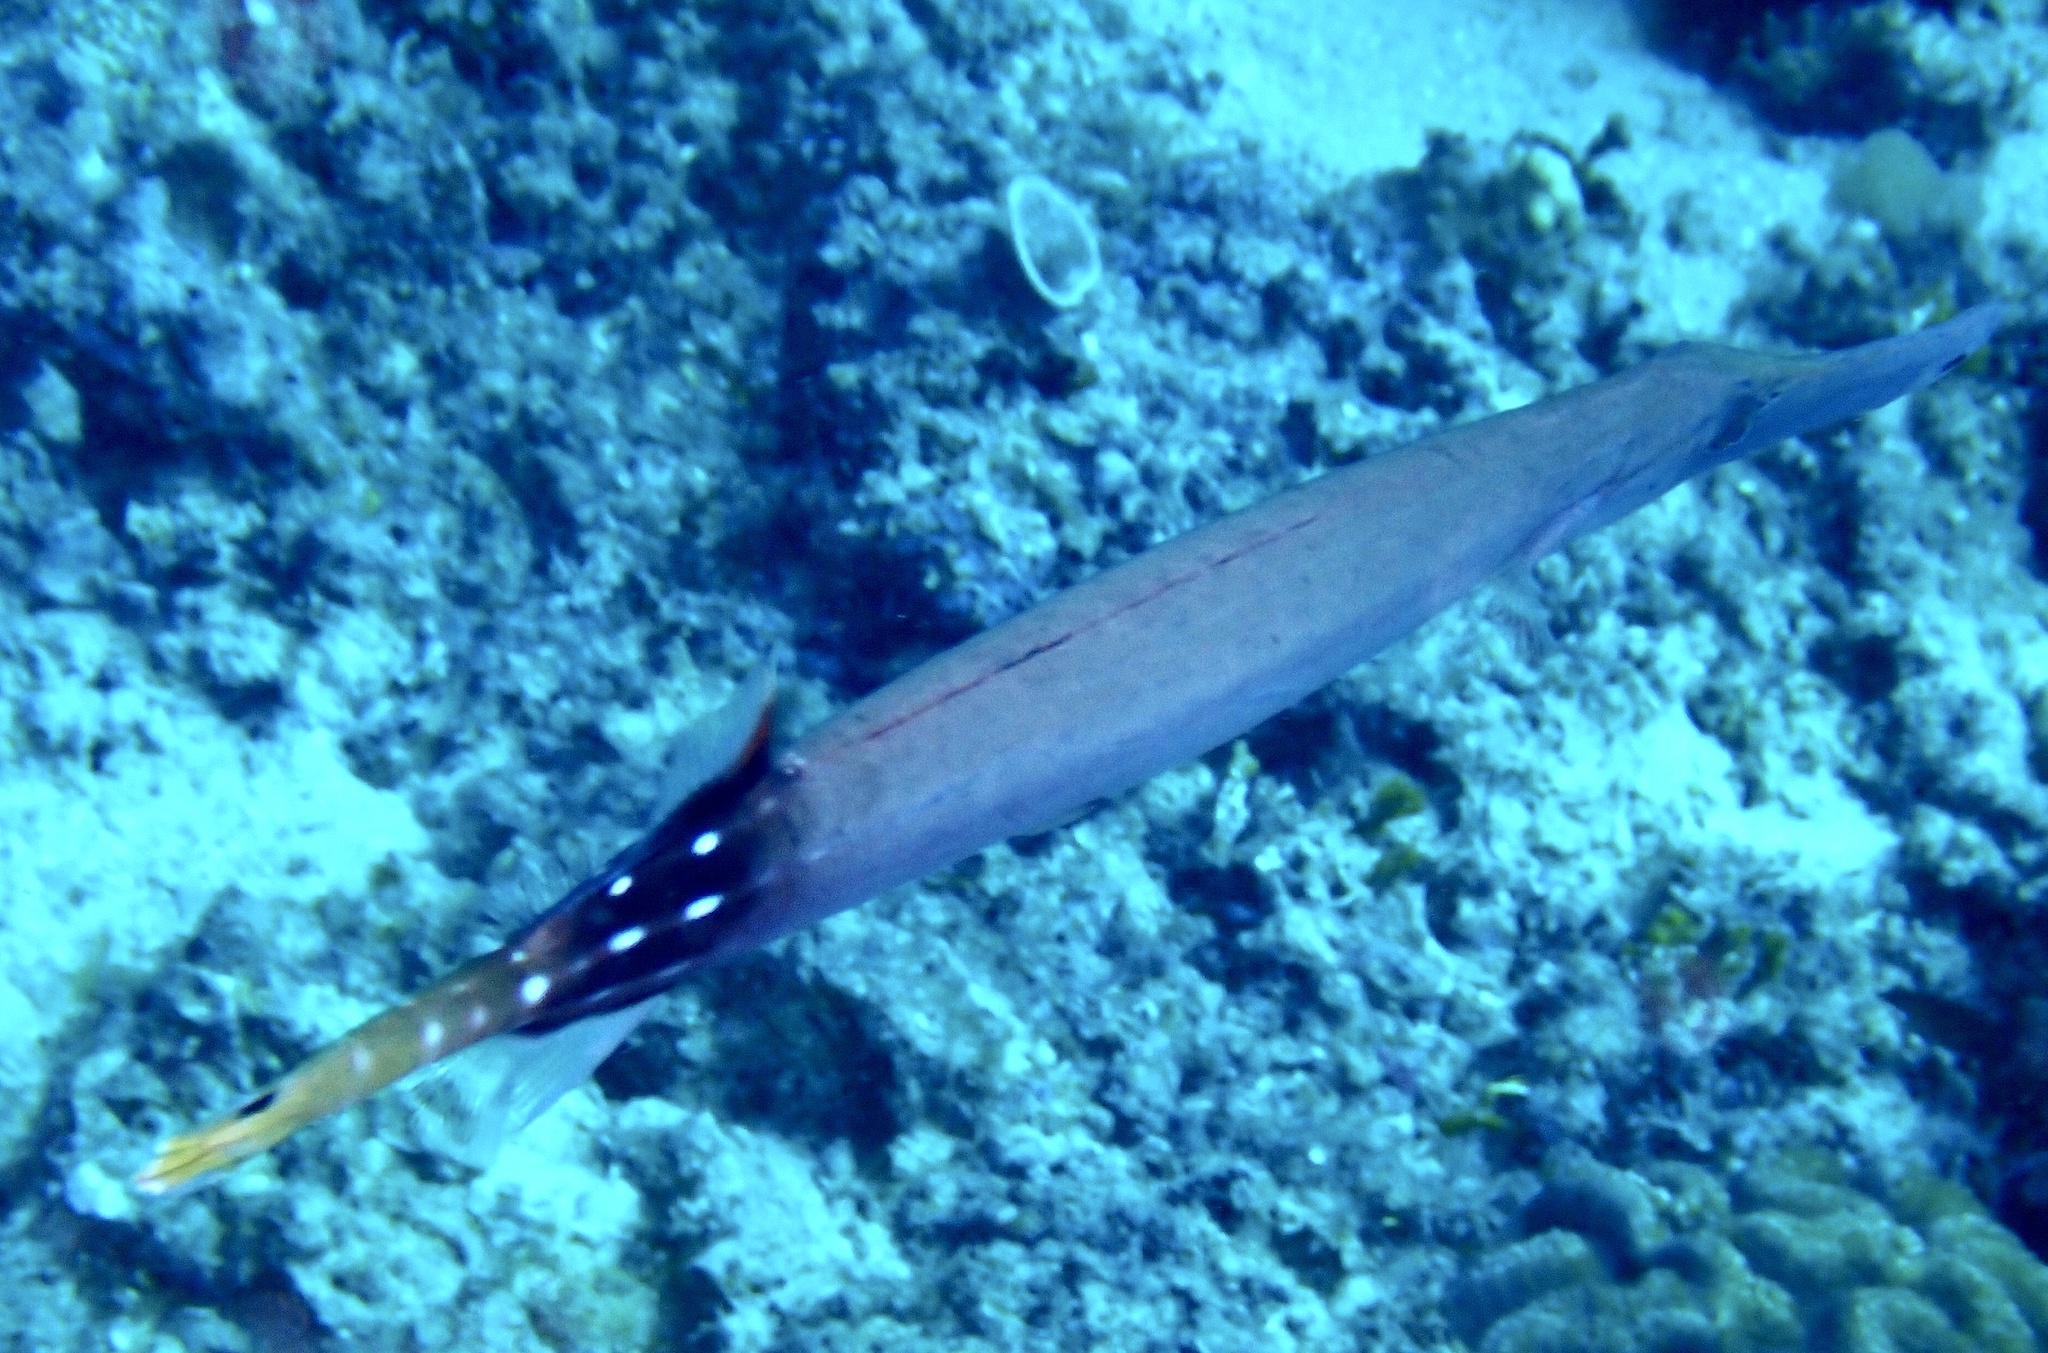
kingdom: Animalia
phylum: Chordata
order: Syngnathiformes
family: Aulostomidae
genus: Aulostomus
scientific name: Aulostomus chinensis
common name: Chinese trumpetfish
